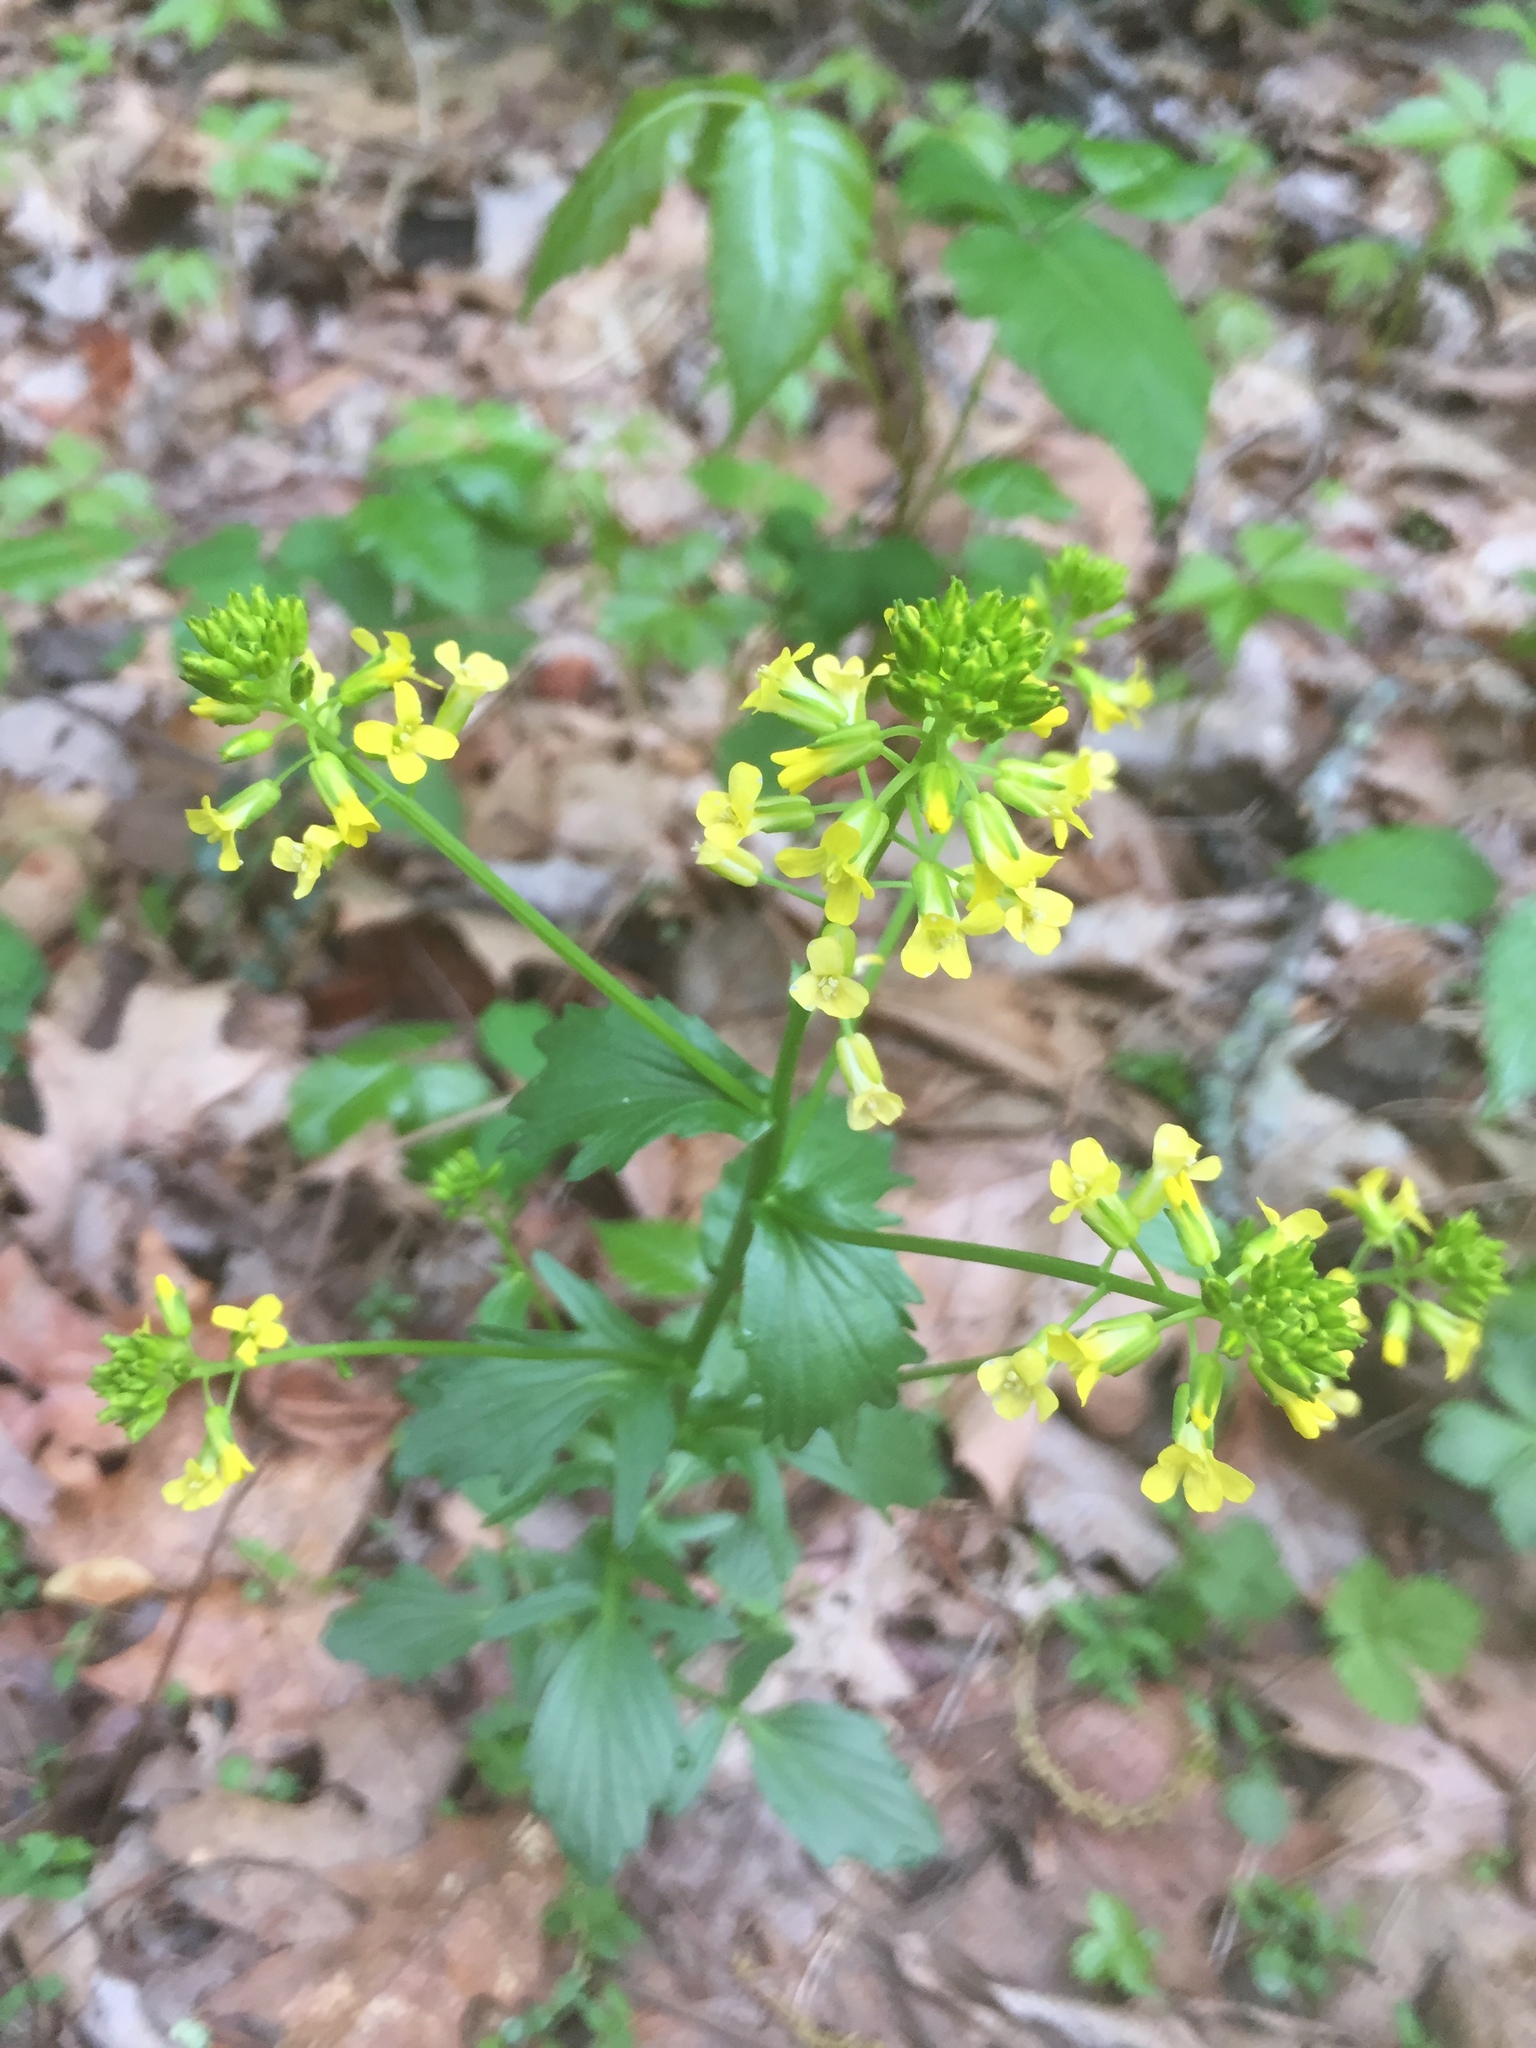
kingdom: Plantae
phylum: Tracheophyta
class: Magnoliopsida
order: Brassicales
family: Brassicaceae
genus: Barbarea
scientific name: Barbarea vulgaris
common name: Cressy-greens
